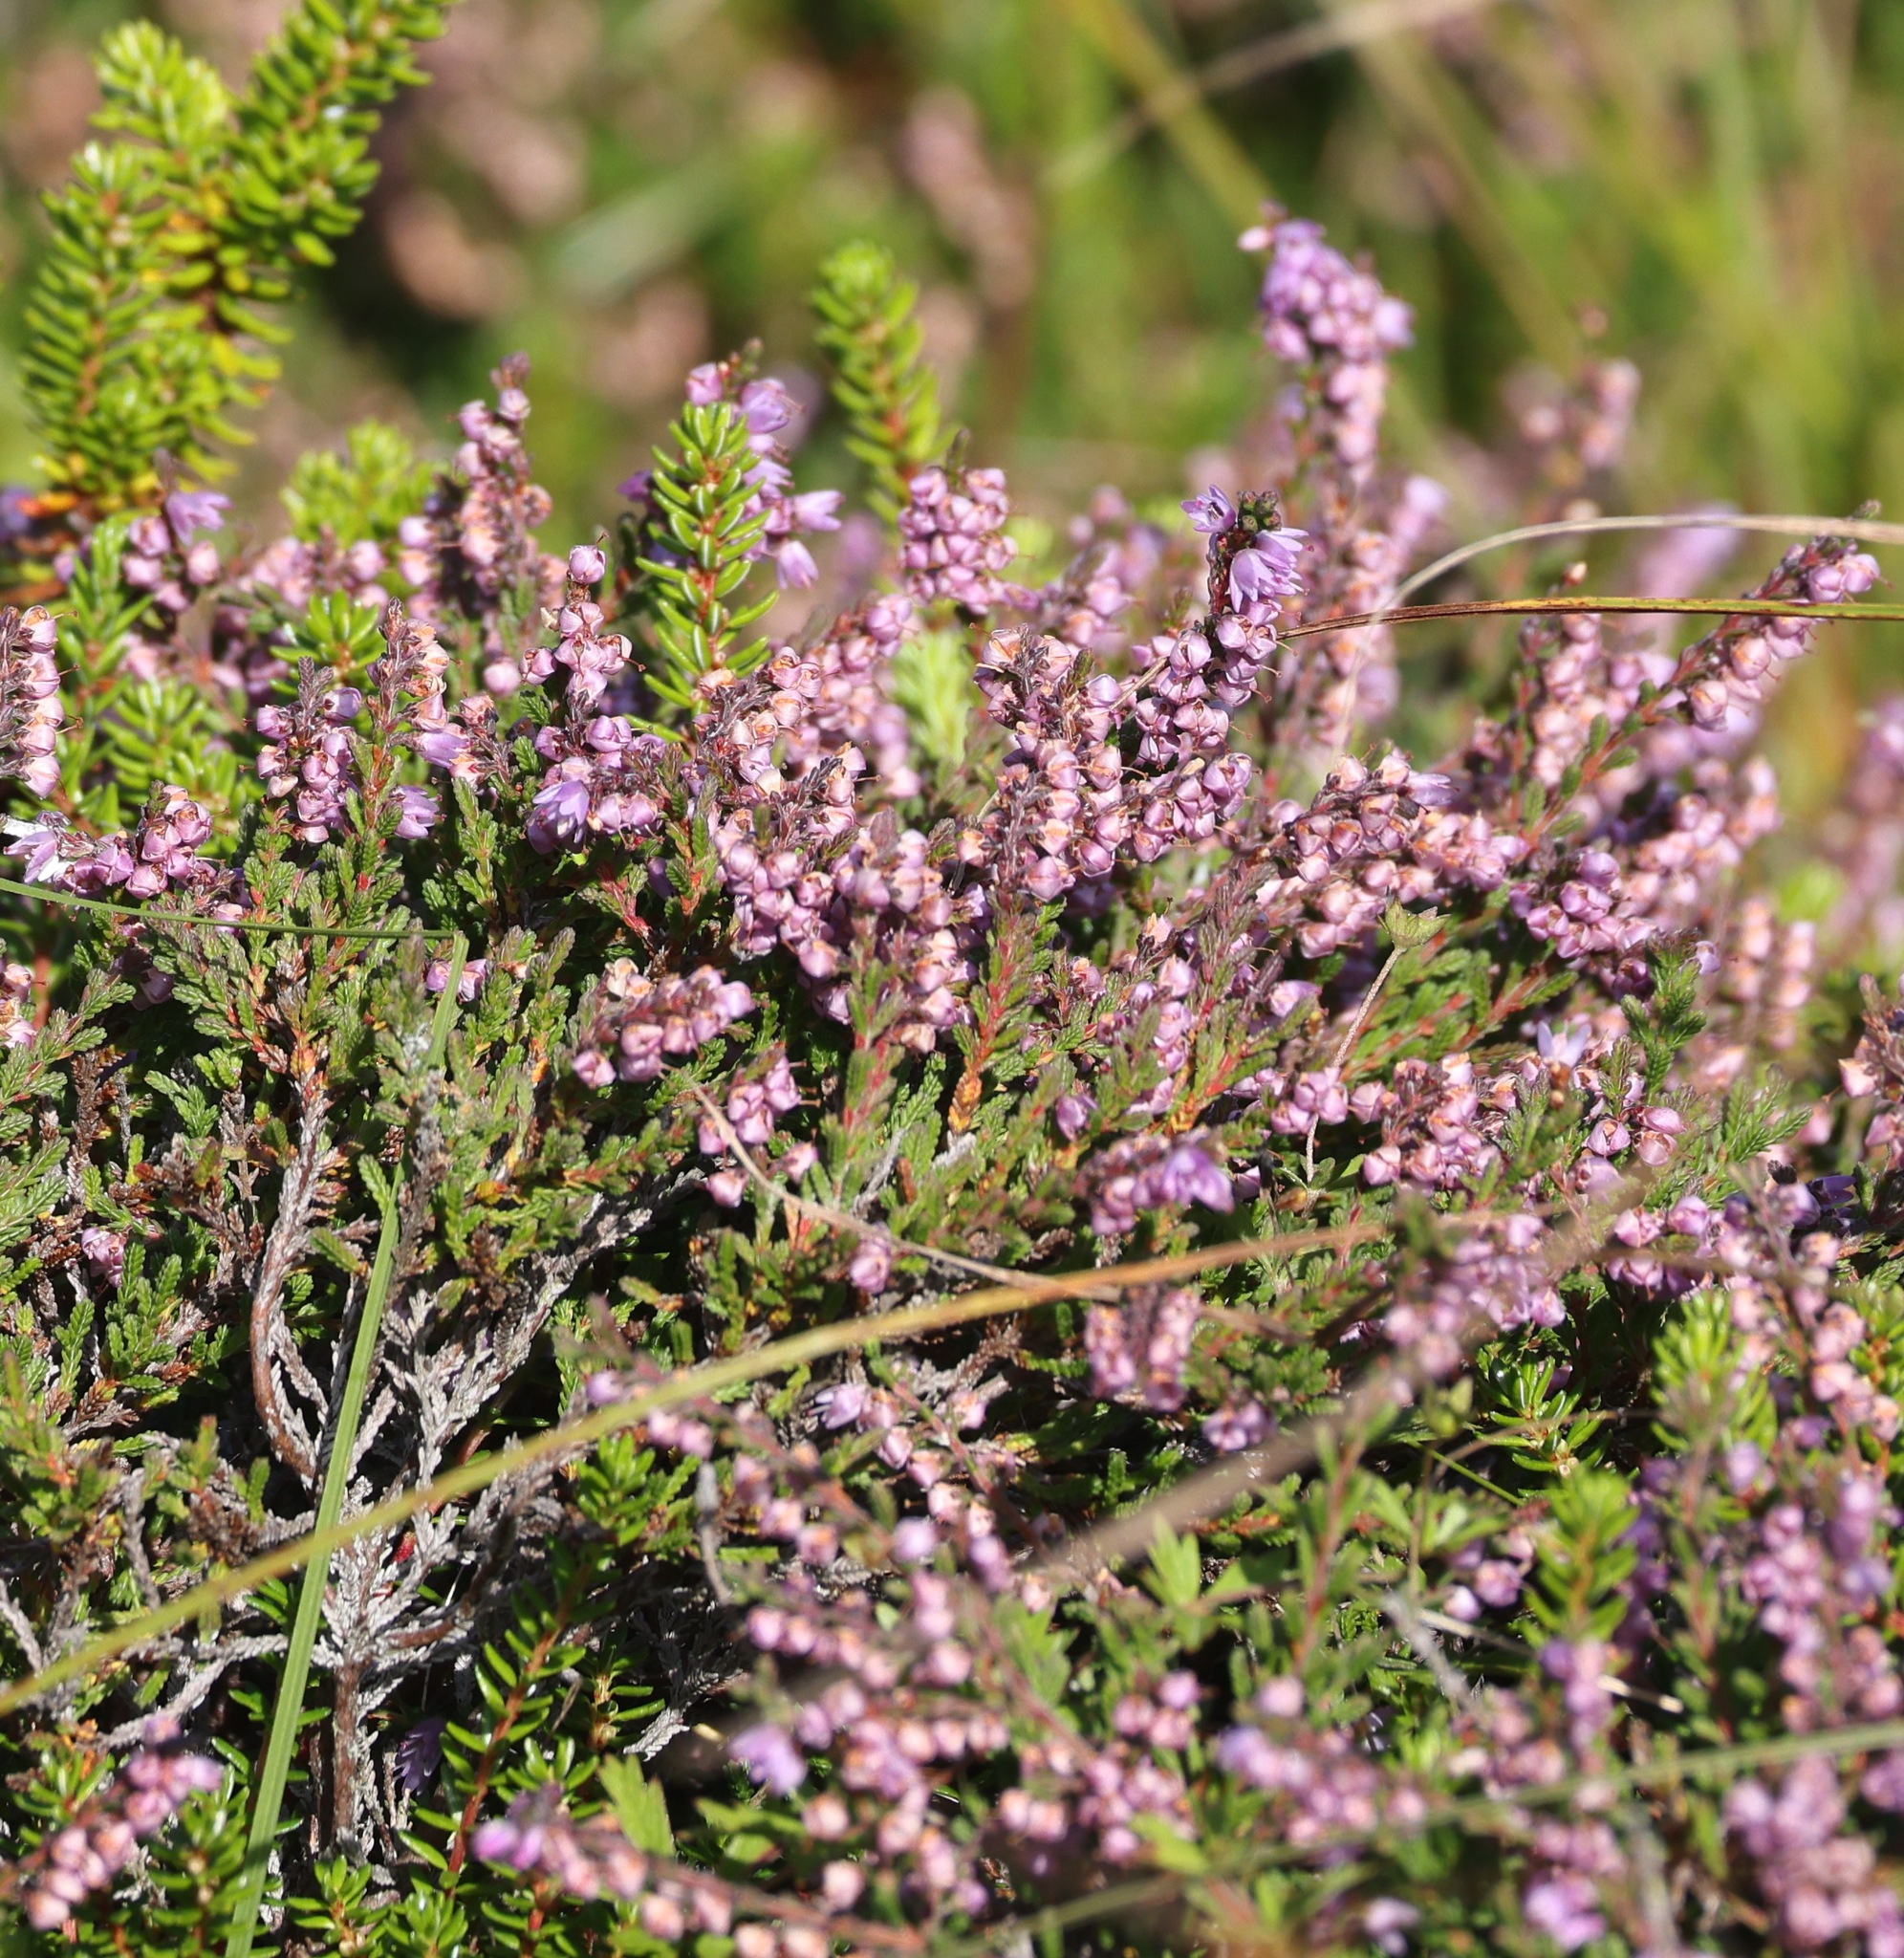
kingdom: Plantae
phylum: Tracheophyta
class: Magnoliopsida
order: Ericales
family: Ericaceae
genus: Calluna
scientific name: Calluna vulgaris
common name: Heather
